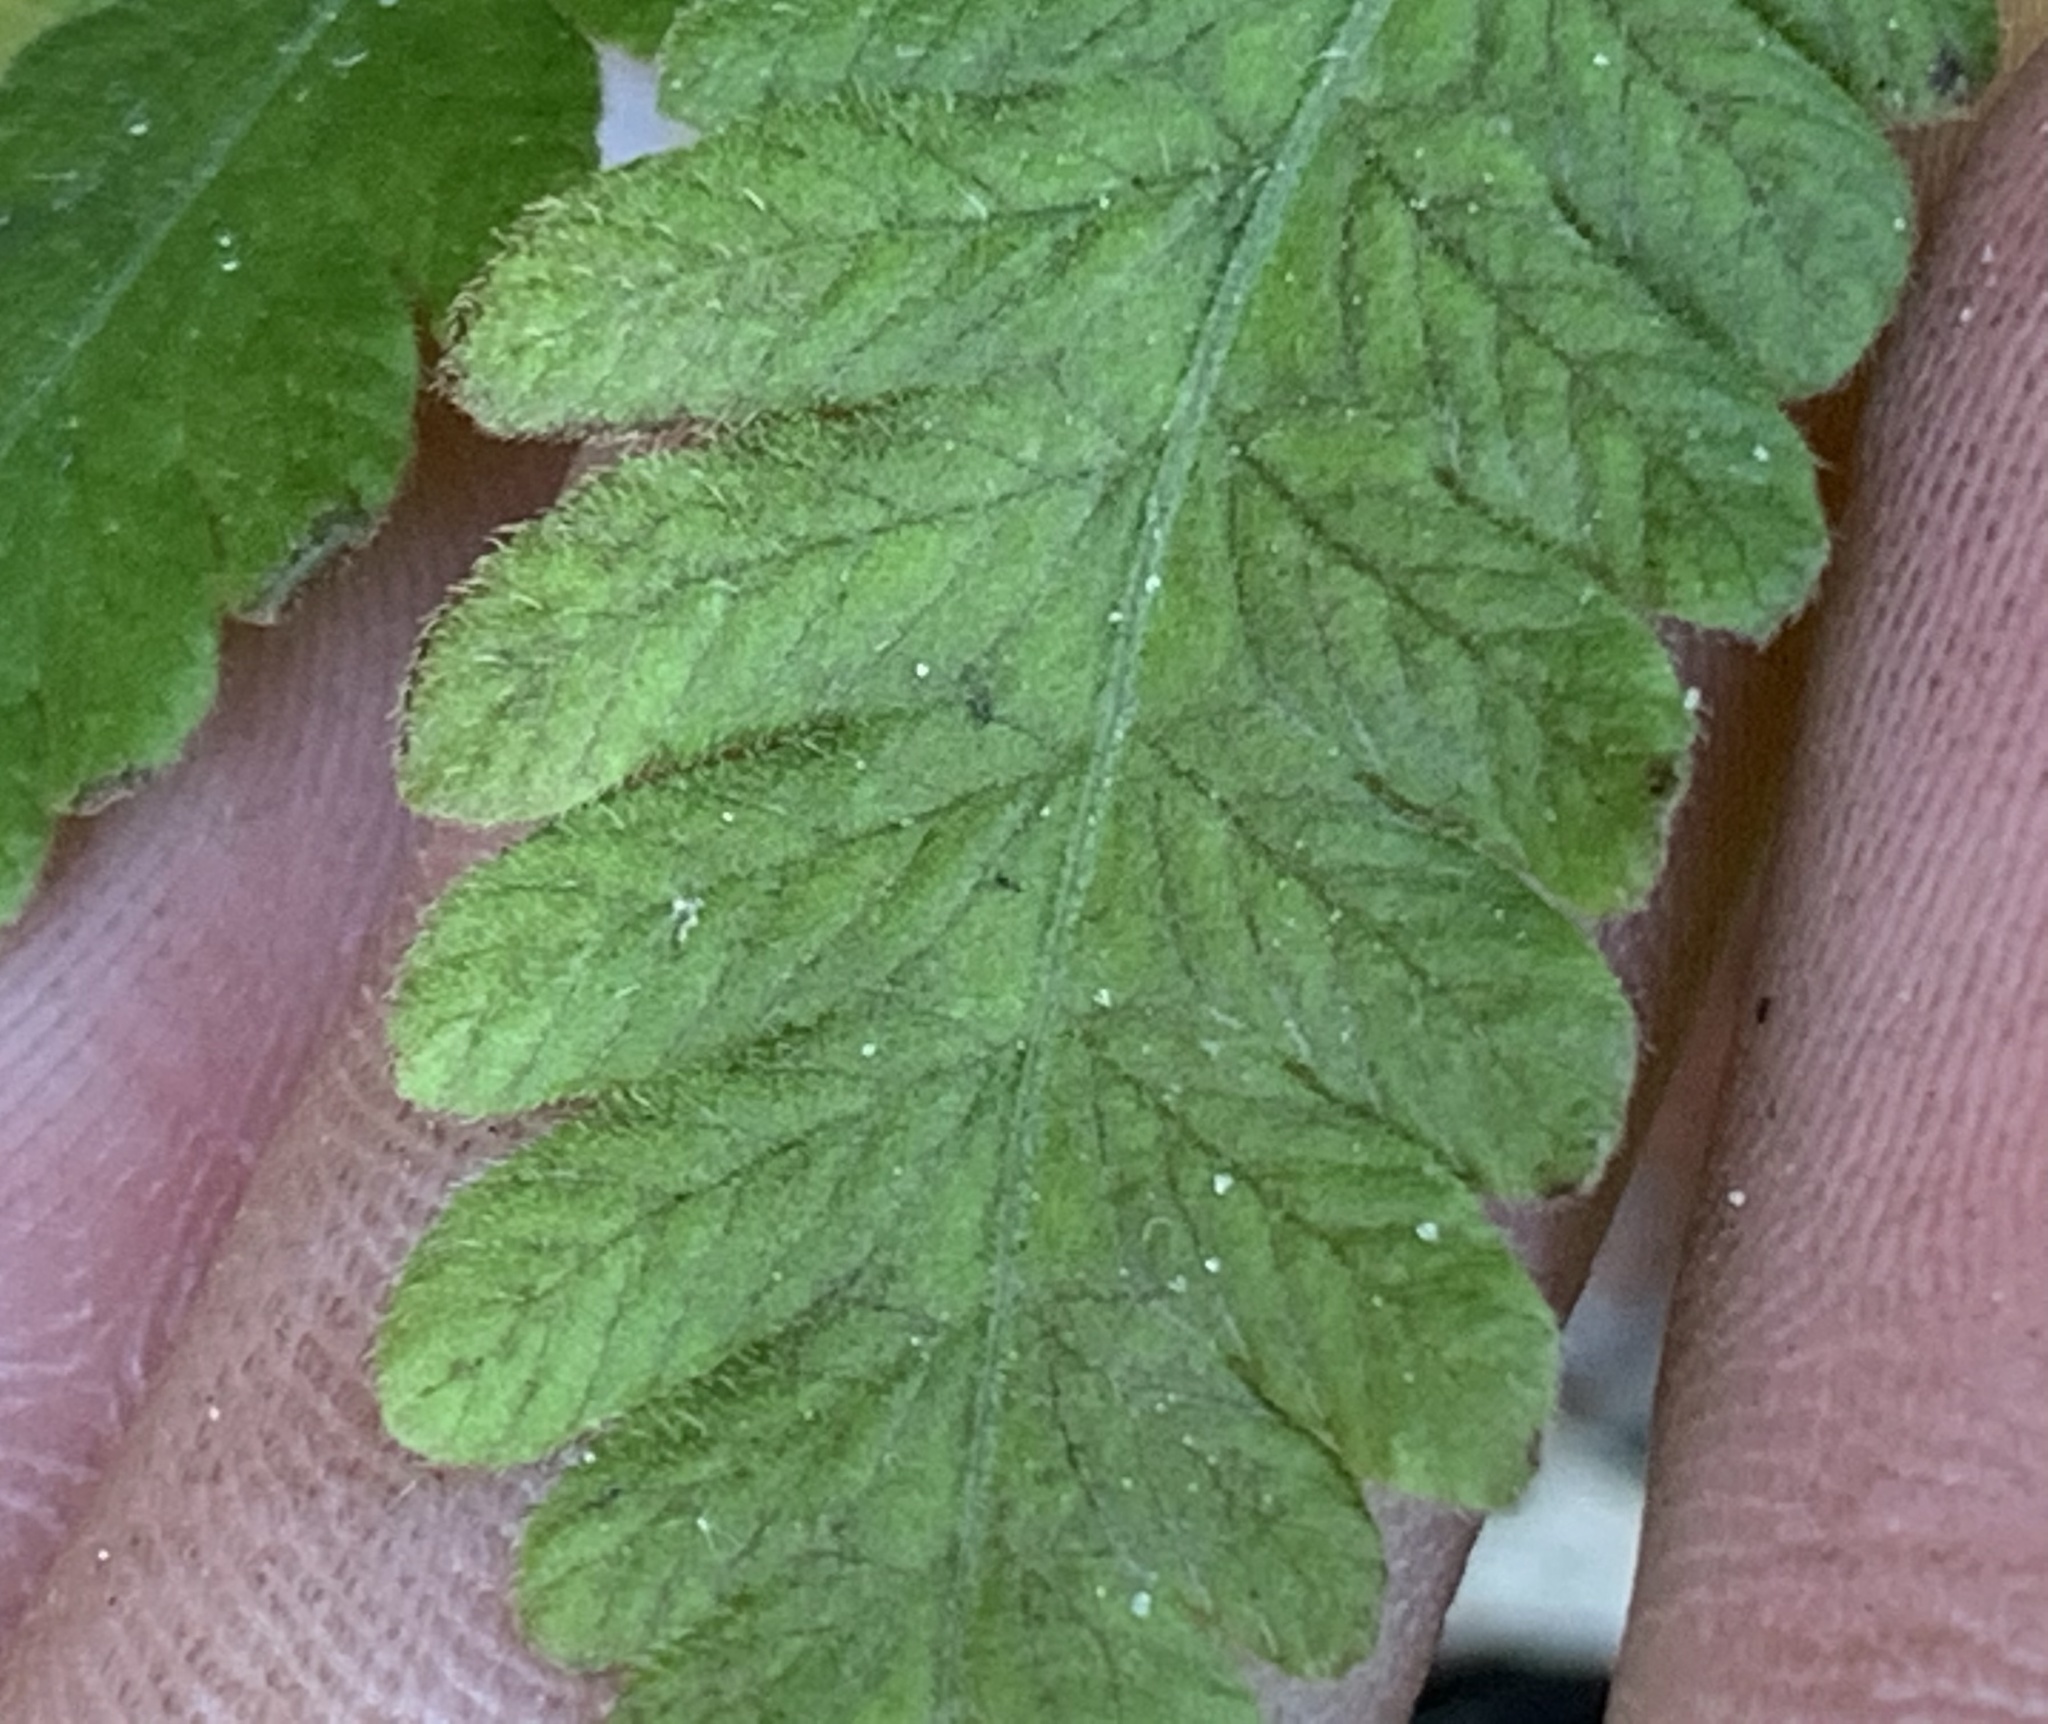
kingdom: Plantae
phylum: Tracheophyta
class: Polypodiopsida
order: Polypodiales
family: Thelypteridaceae
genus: Christella
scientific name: Christella dentata
